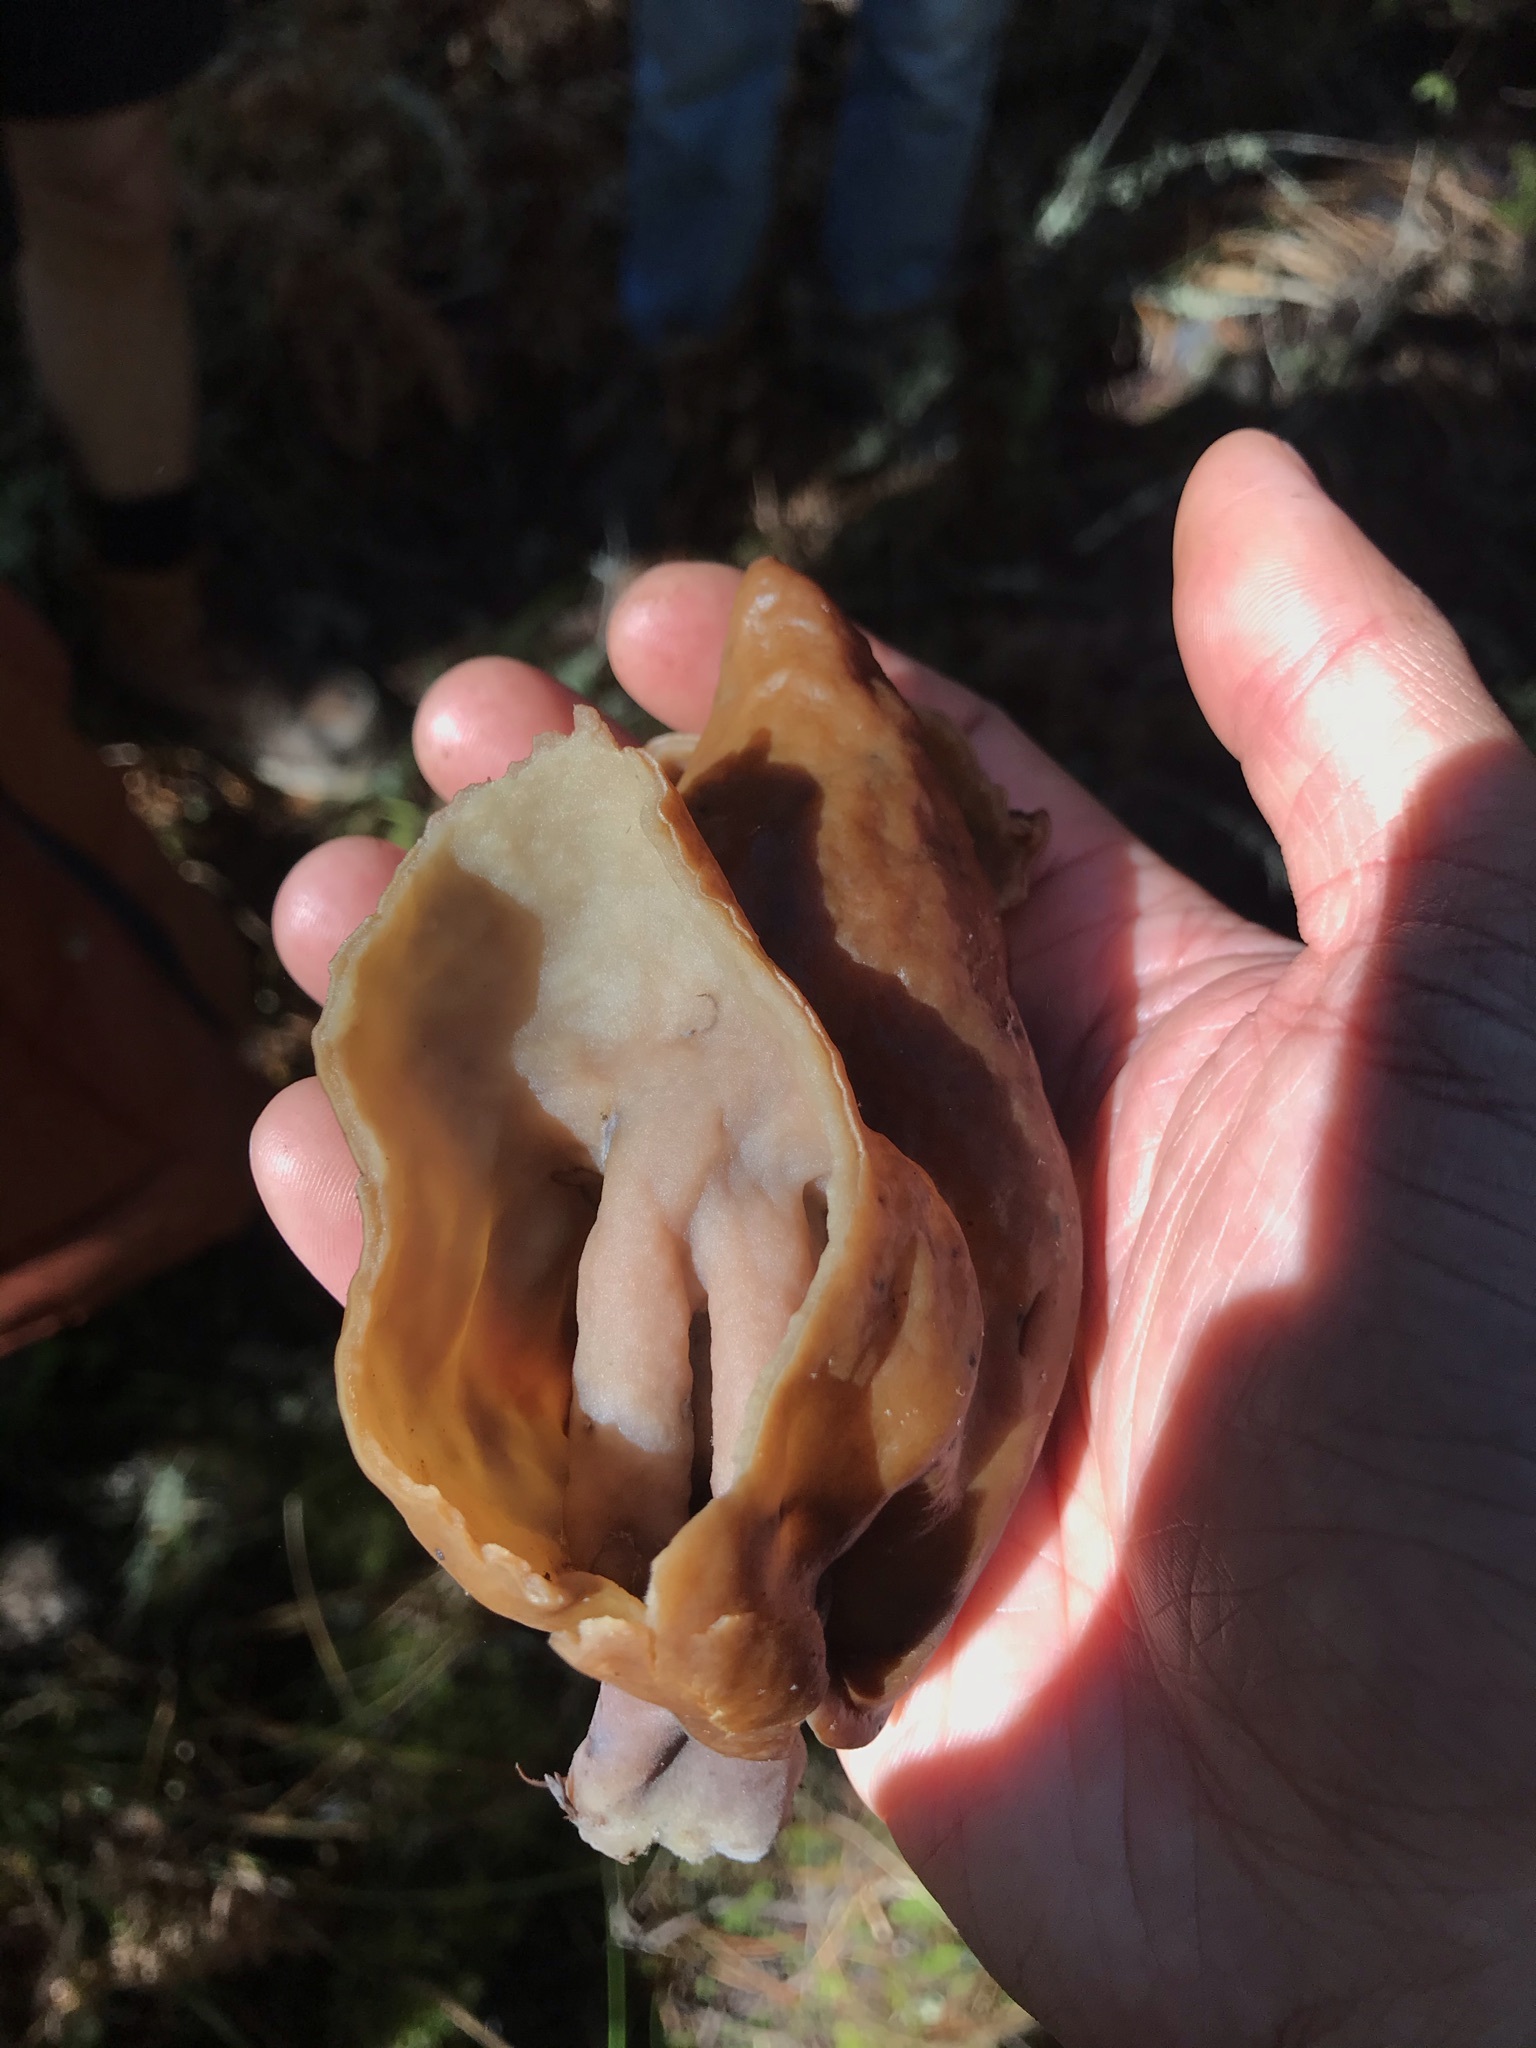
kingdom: Fungi
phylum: Ascomycota
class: Pezizomycetes
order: Pezizales
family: Discinaceae
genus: Gyromitra
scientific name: Gyromitra infula
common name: Pouched false morel
